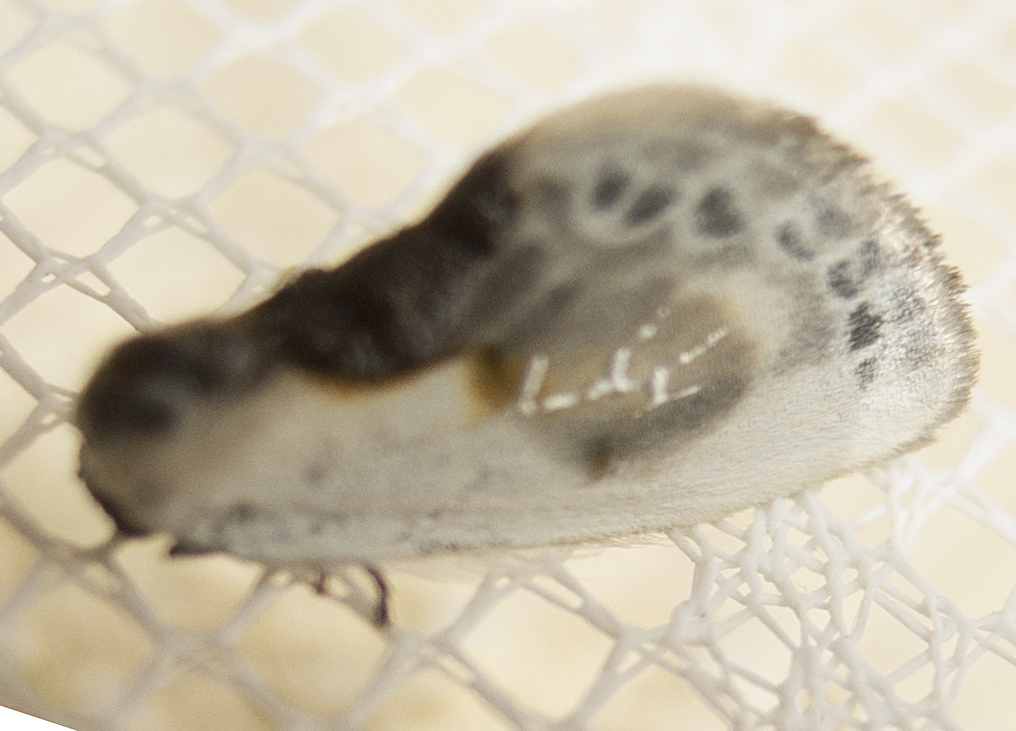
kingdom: Animalia
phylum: Arthropoda
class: Insecta
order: Lepidoptera
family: Drepanidae
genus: Cilix
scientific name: Cilix glaucata
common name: Chinese character
